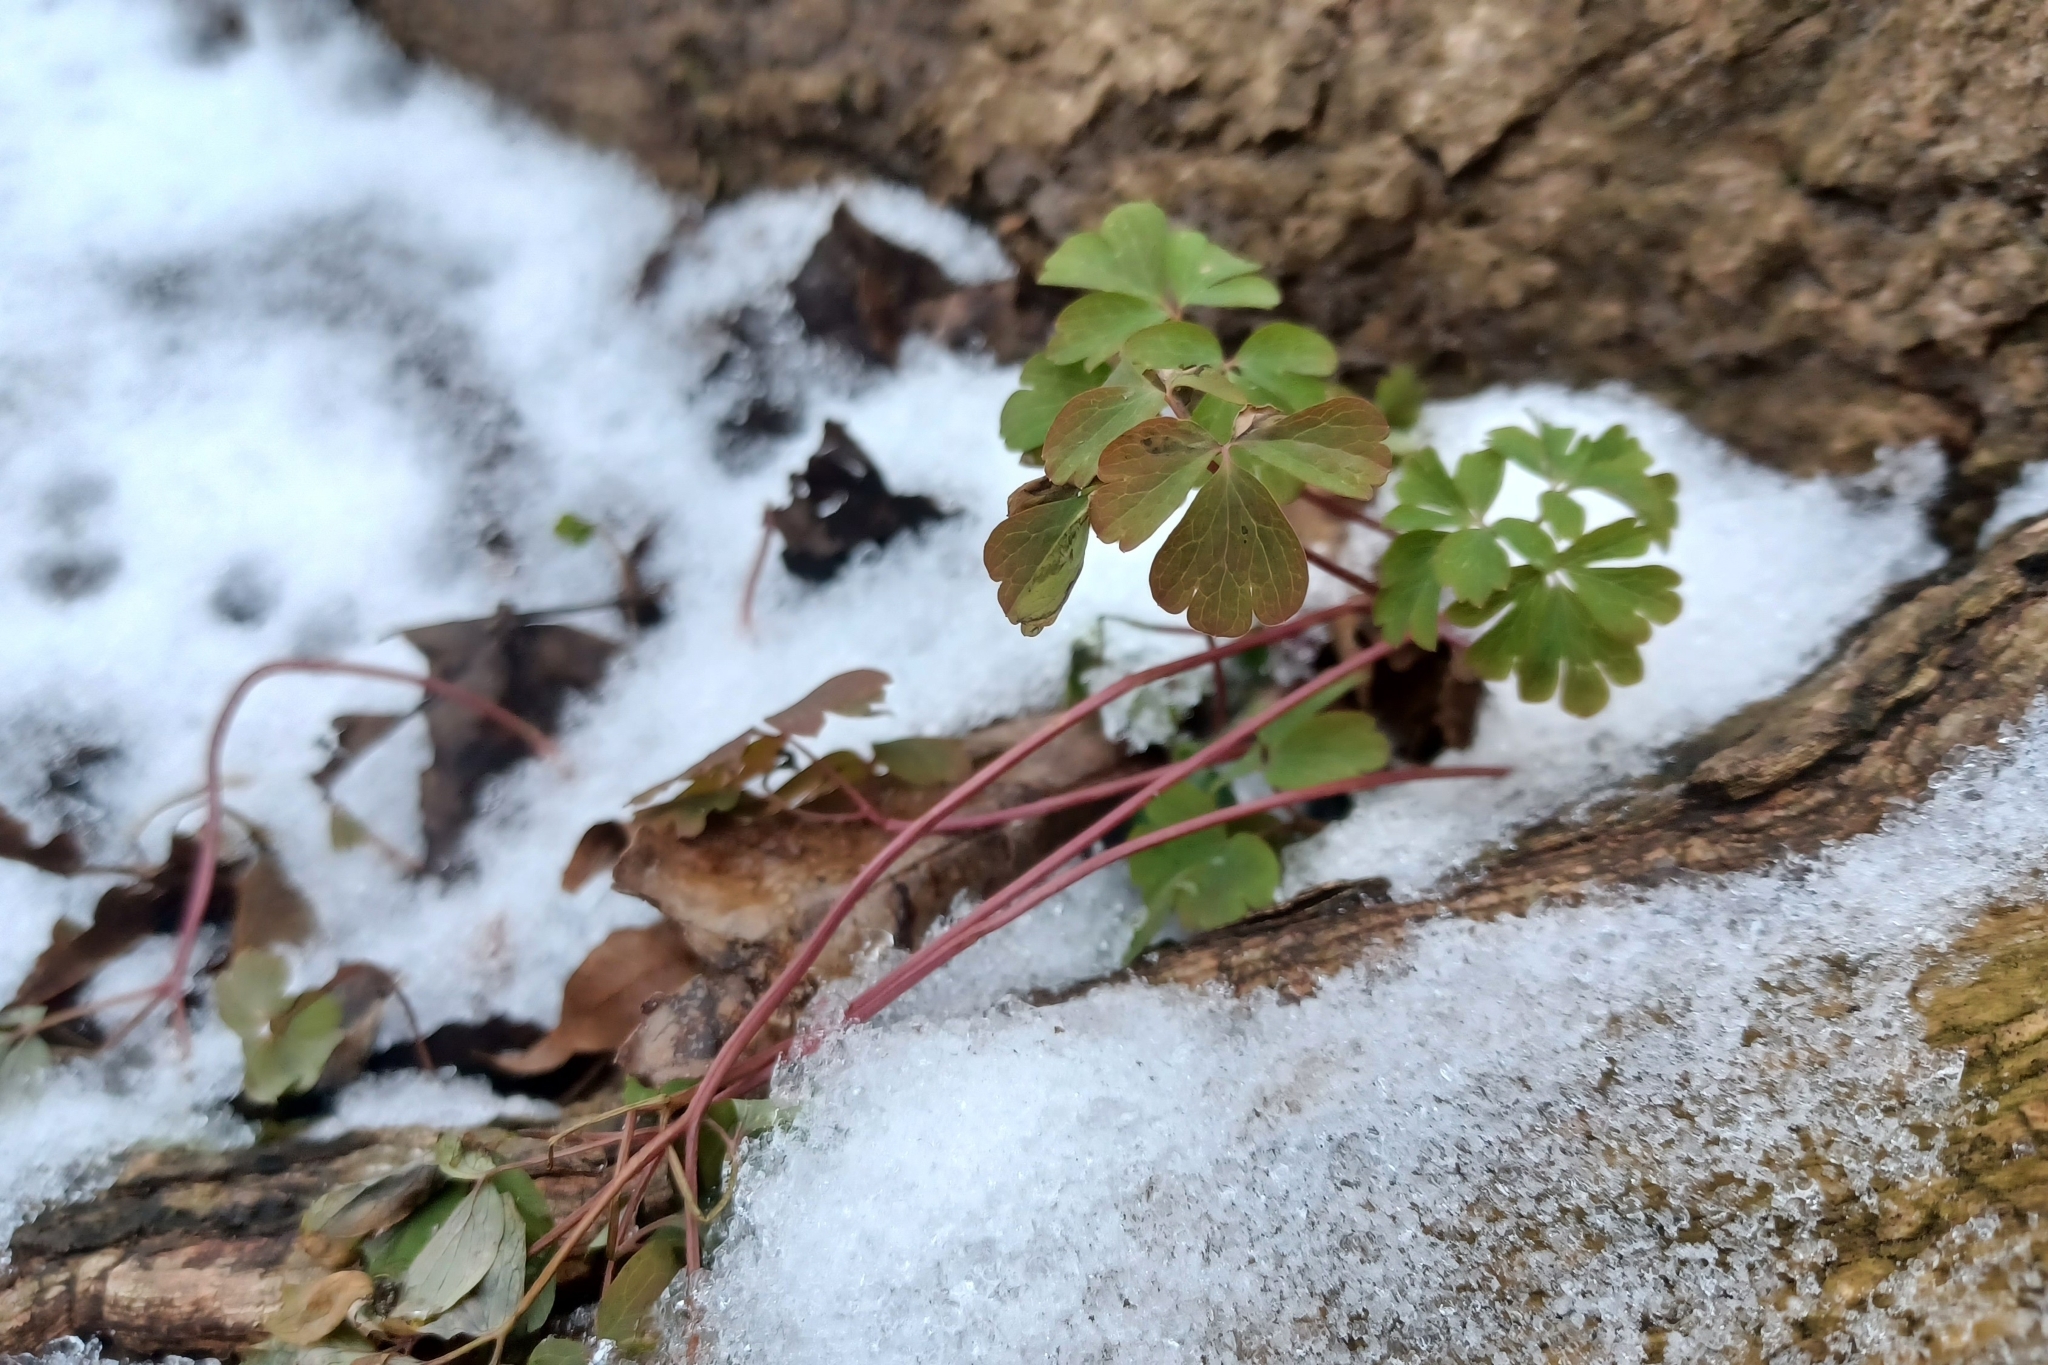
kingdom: Plantae
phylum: Tracheophyta
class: Magnoliopsida
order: Ranunculales
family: Ranunculaceae
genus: Enemion
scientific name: Enemion biternatum
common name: Eastern false rue-anemone
